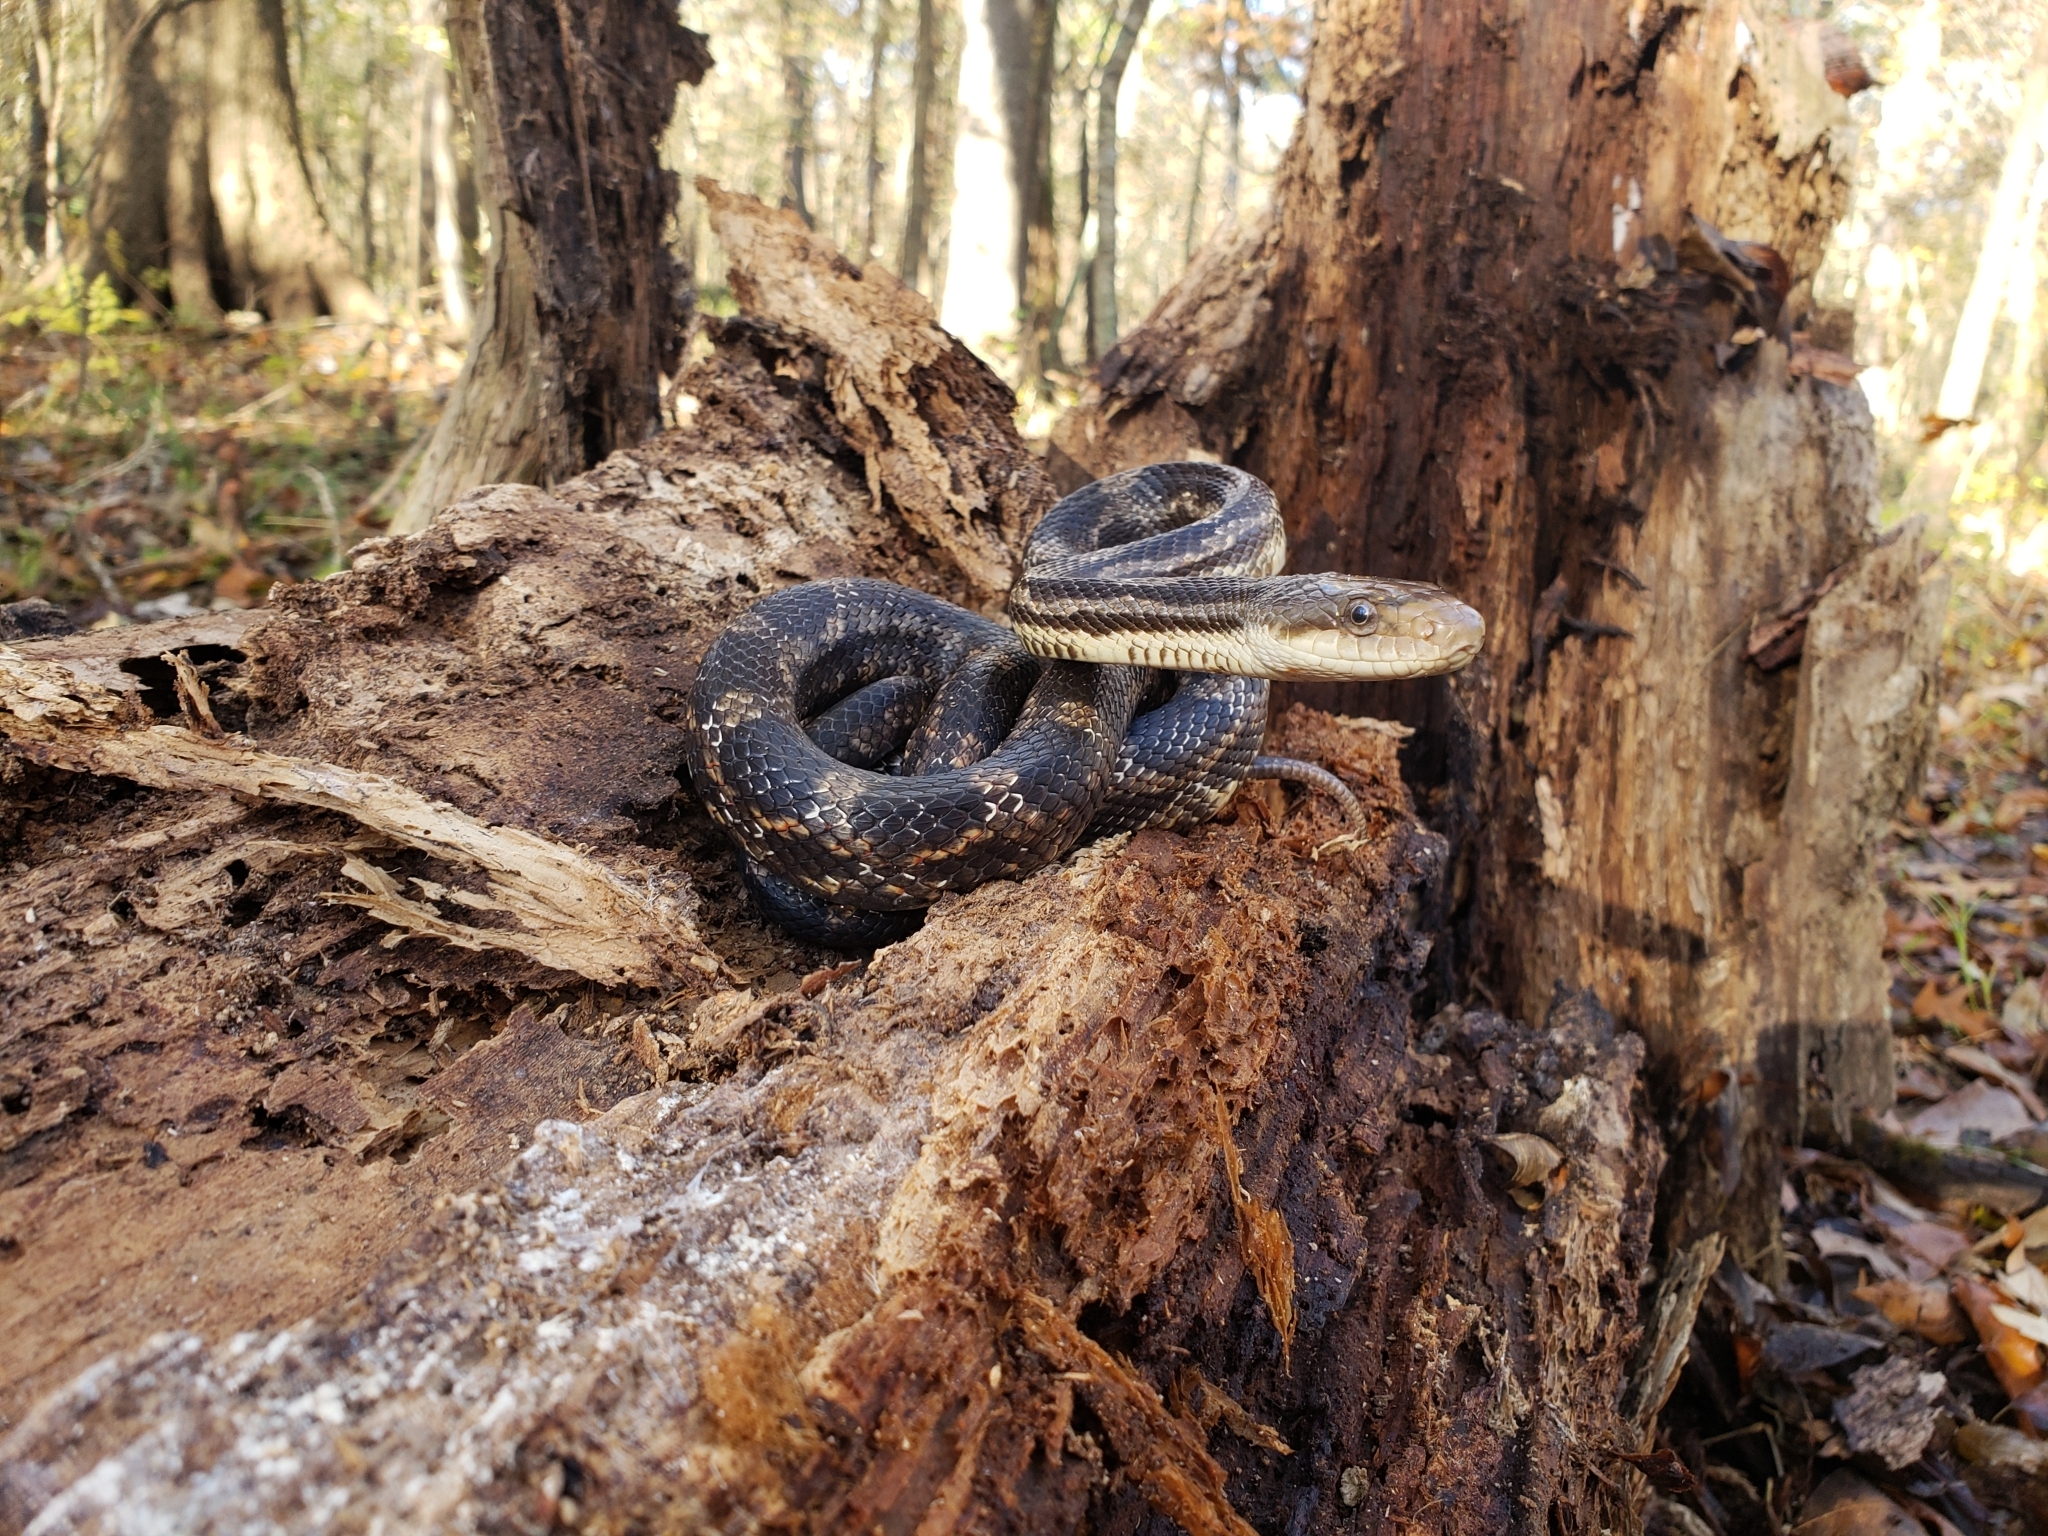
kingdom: Animalia
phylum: Chordata
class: Squamata
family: Colubridae
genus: Pantherophis
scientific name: Pantherophis obsoletus
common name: Black rat snake
